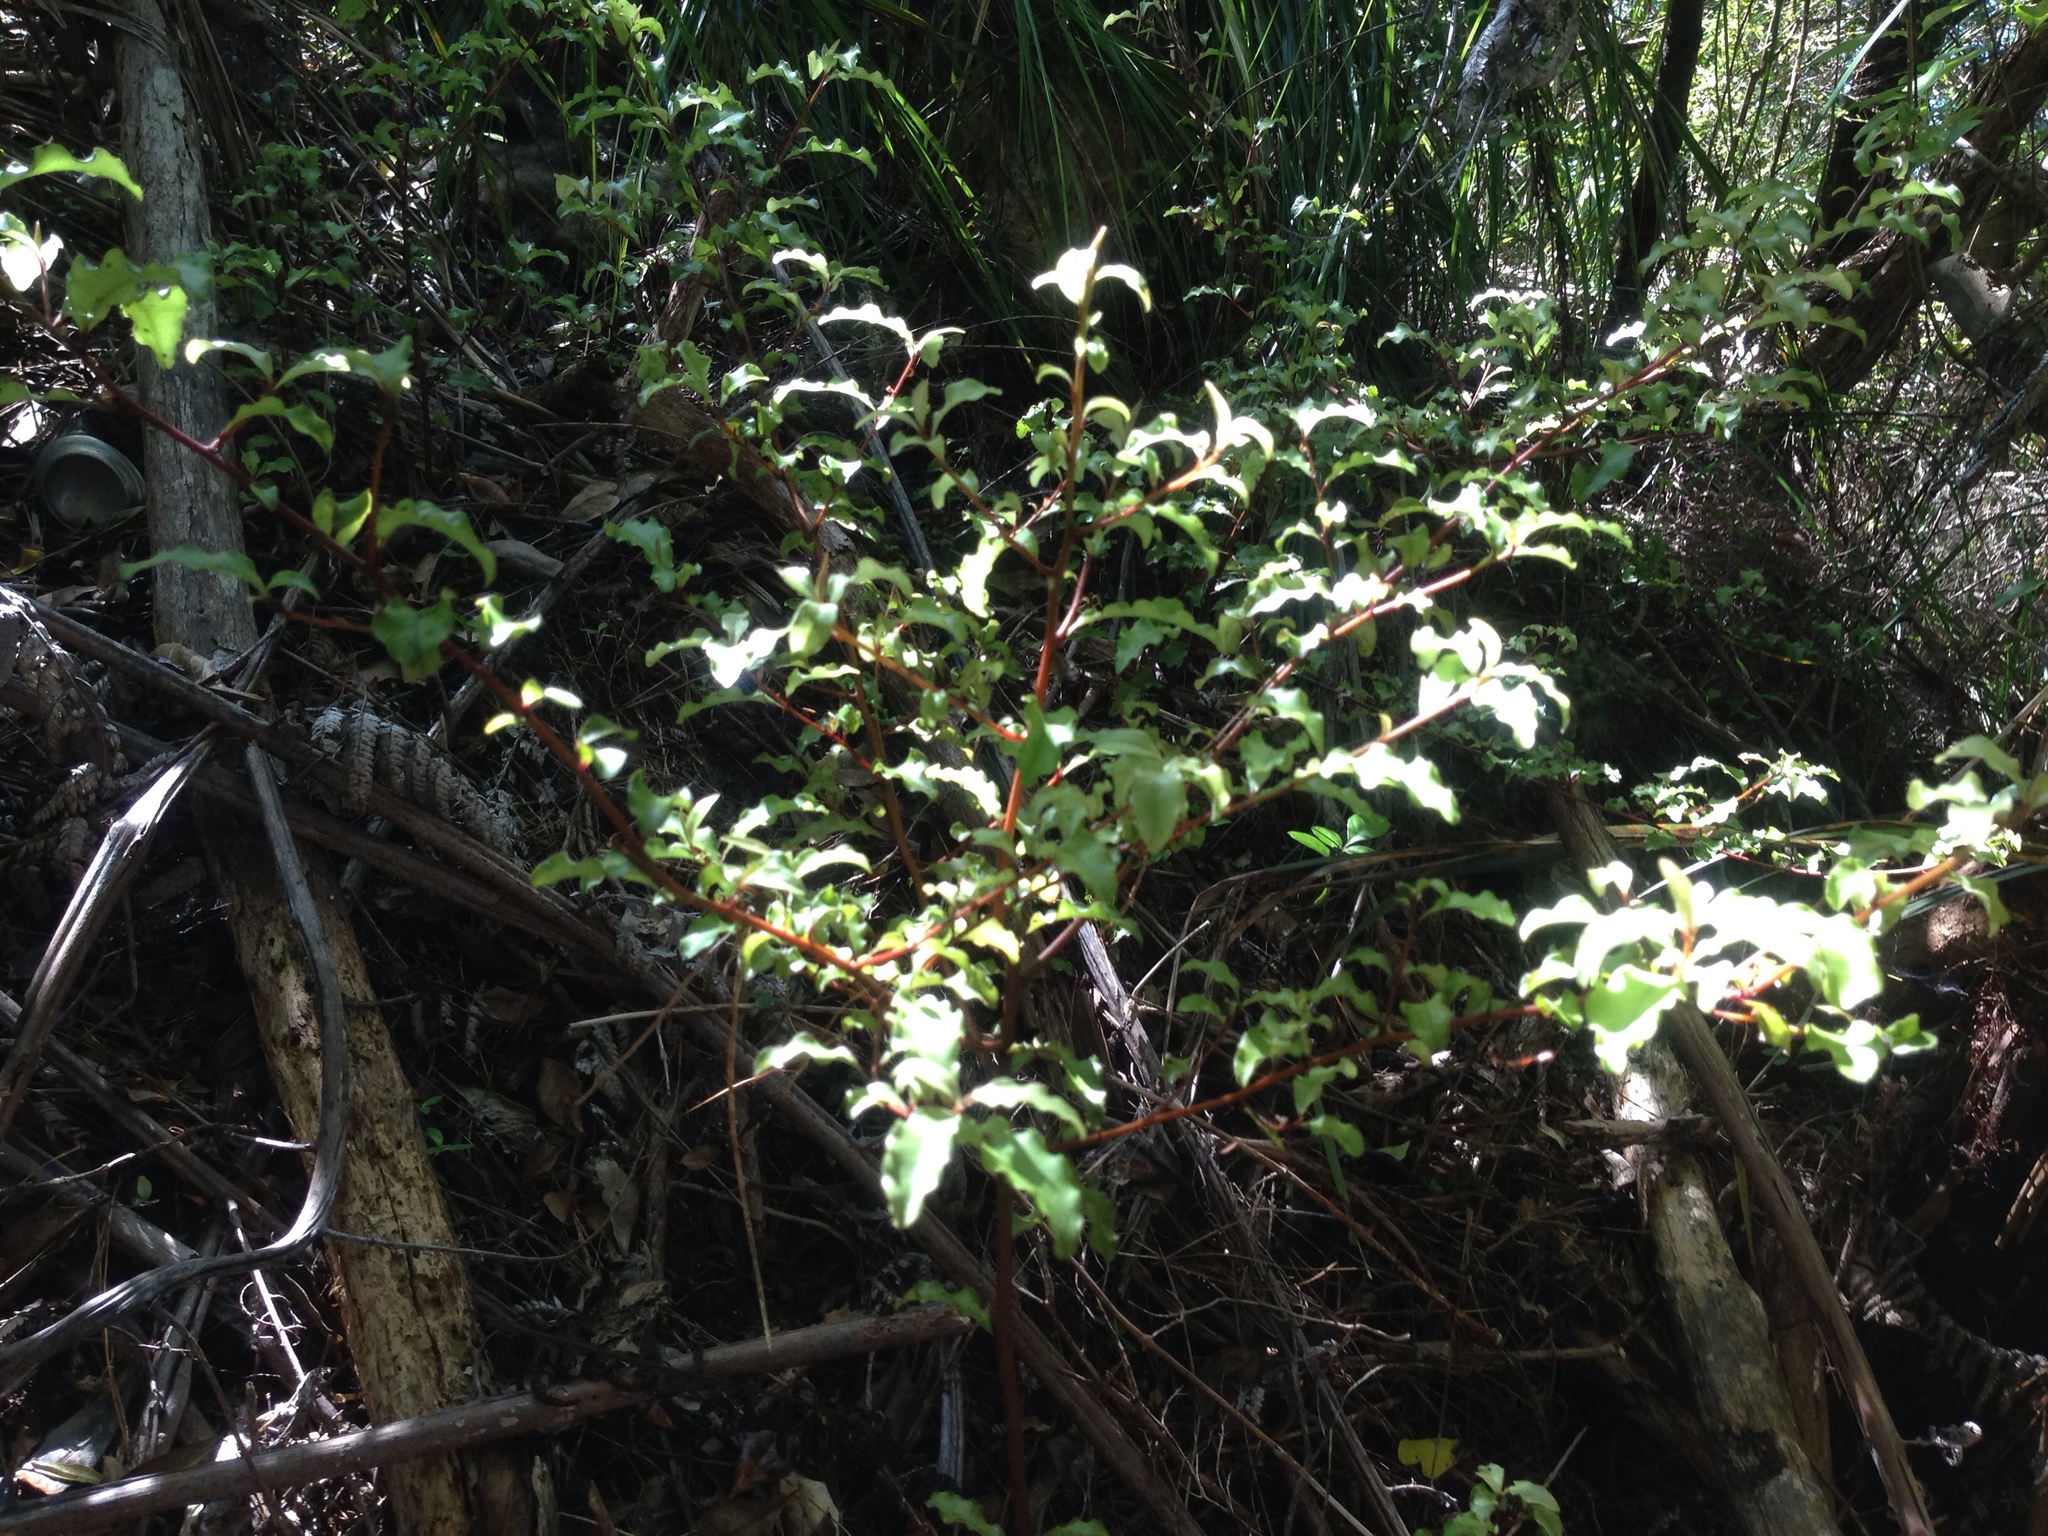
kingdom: Plantae
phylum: Tracheophyta
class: Magnoliopsida
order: Ericales
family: Primulaceae
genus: Myrsine
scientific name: Myrsine australis
